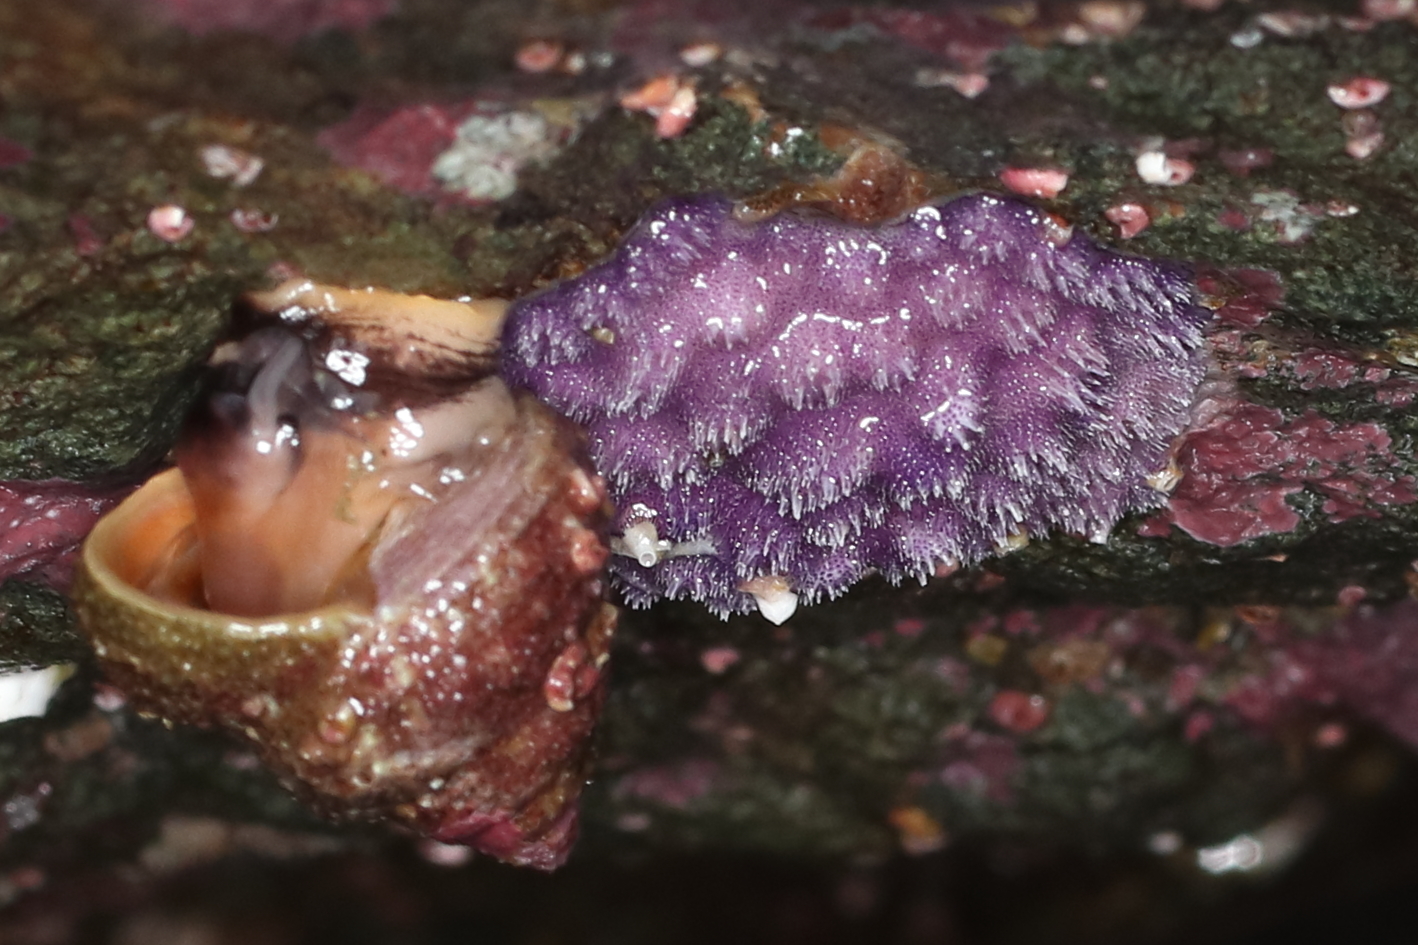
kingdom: Animalia
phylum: Bryozoa
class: Stenolaemata
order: Cyclostomatida
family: Lichenoporidae
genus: Disporella
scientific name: Disporella separata
